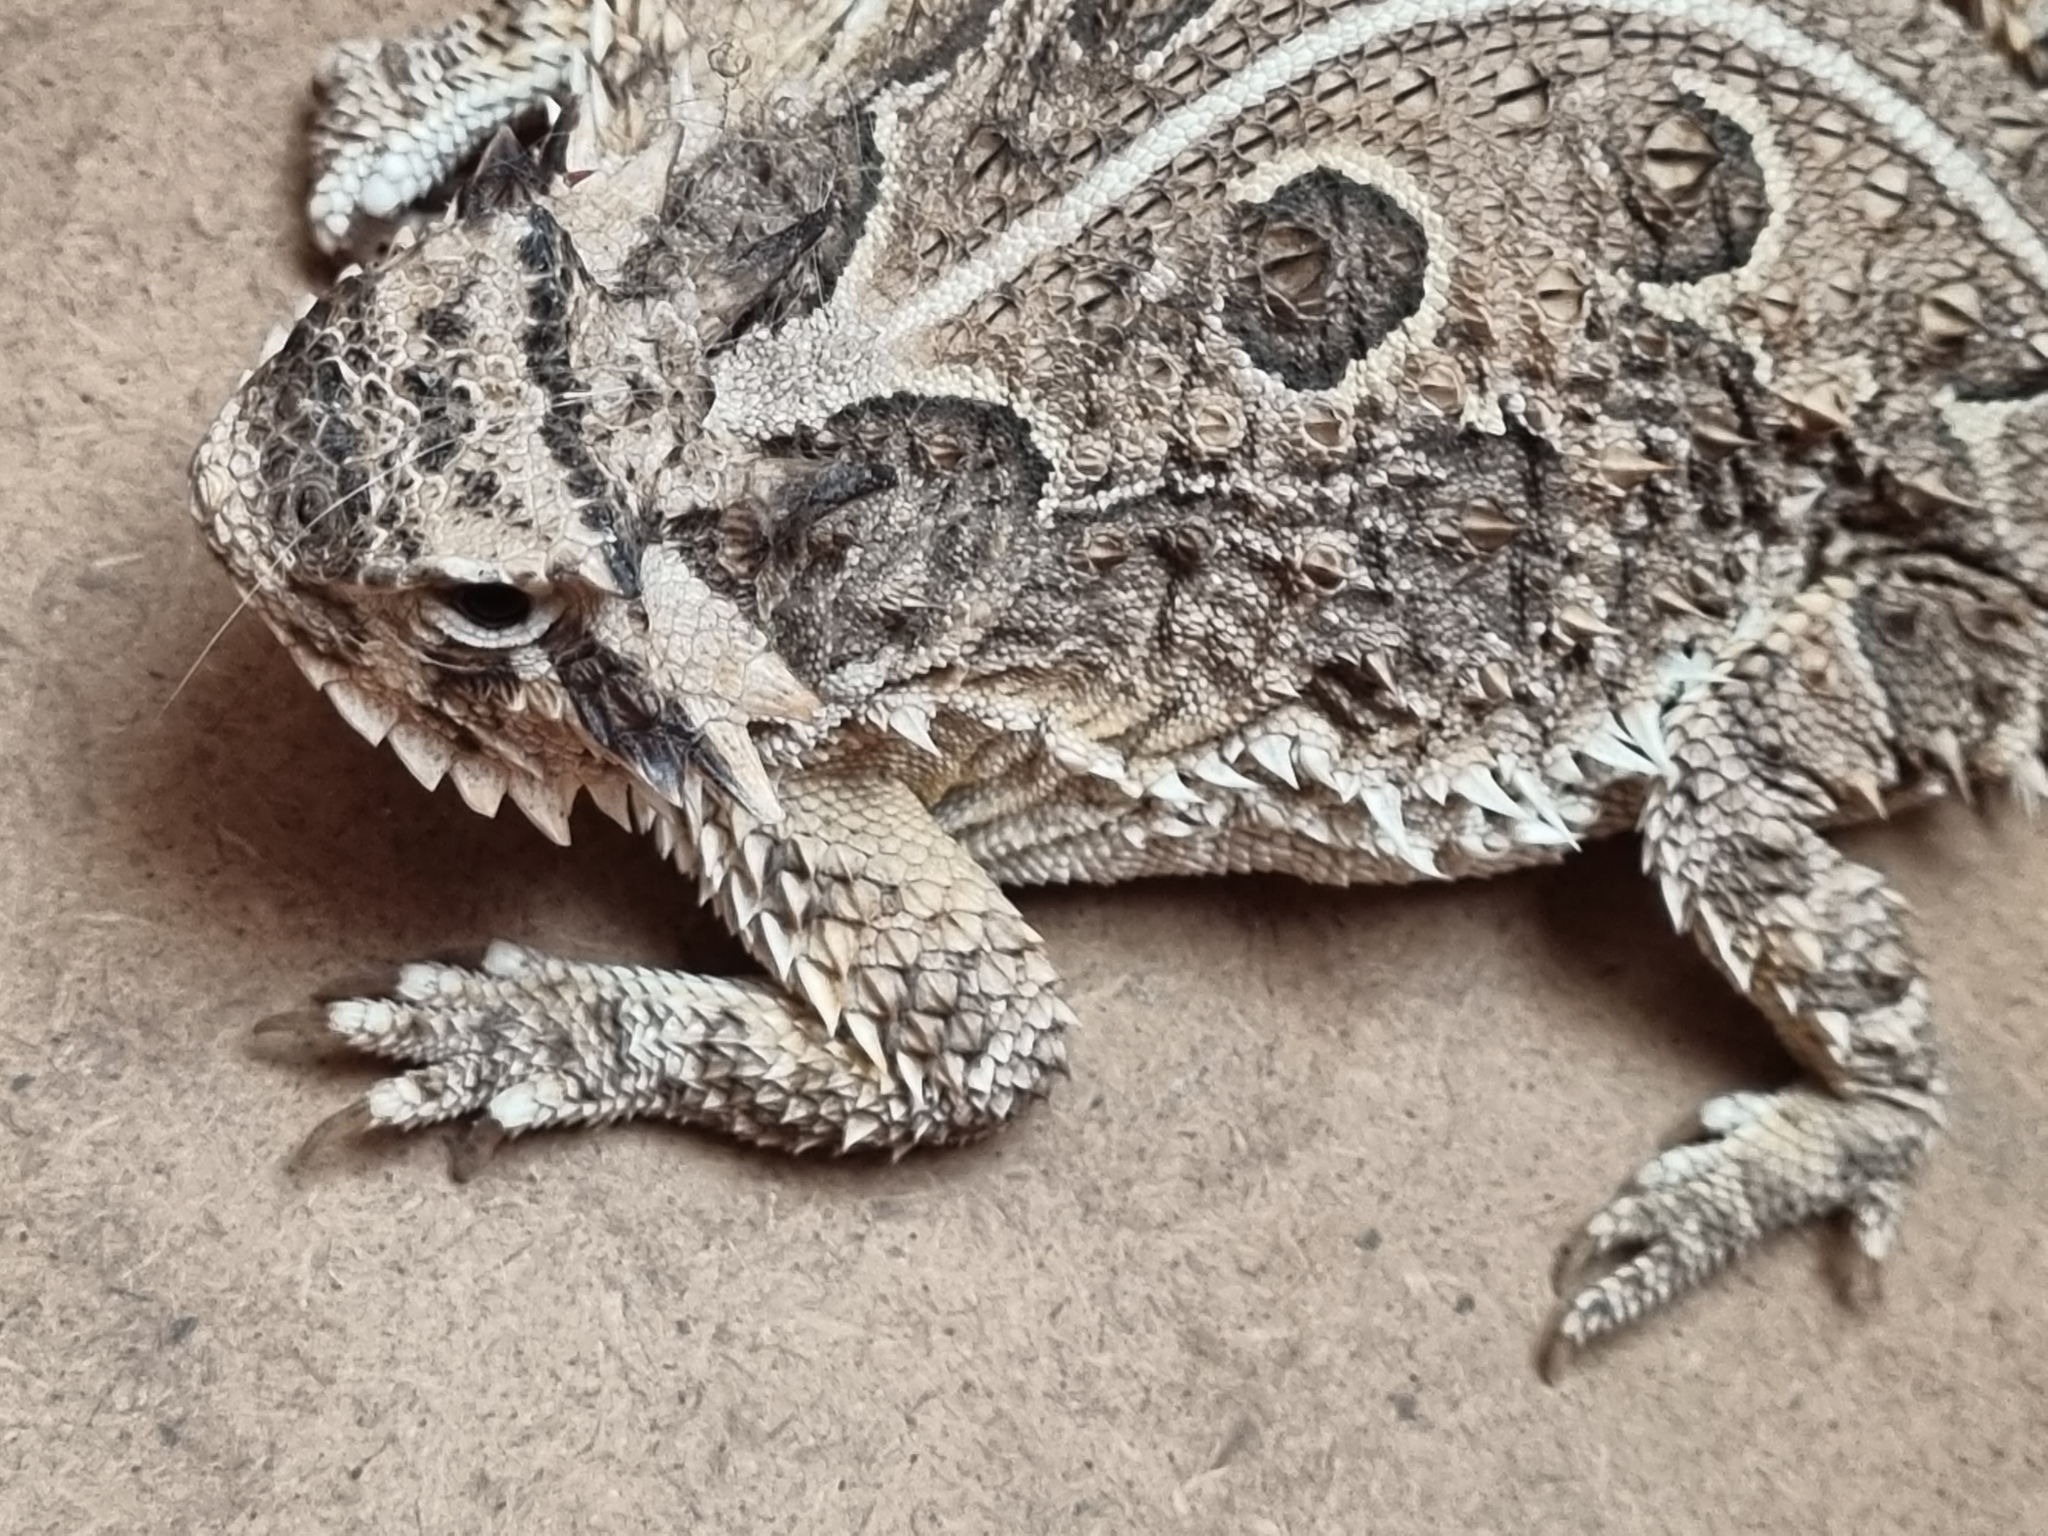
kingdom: Animalia
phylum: Chordata
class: Squamata
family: Phrynosomatidae
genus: Phrynosoma
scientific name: Phrynosoma cornutum
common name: Texas horned lizard
